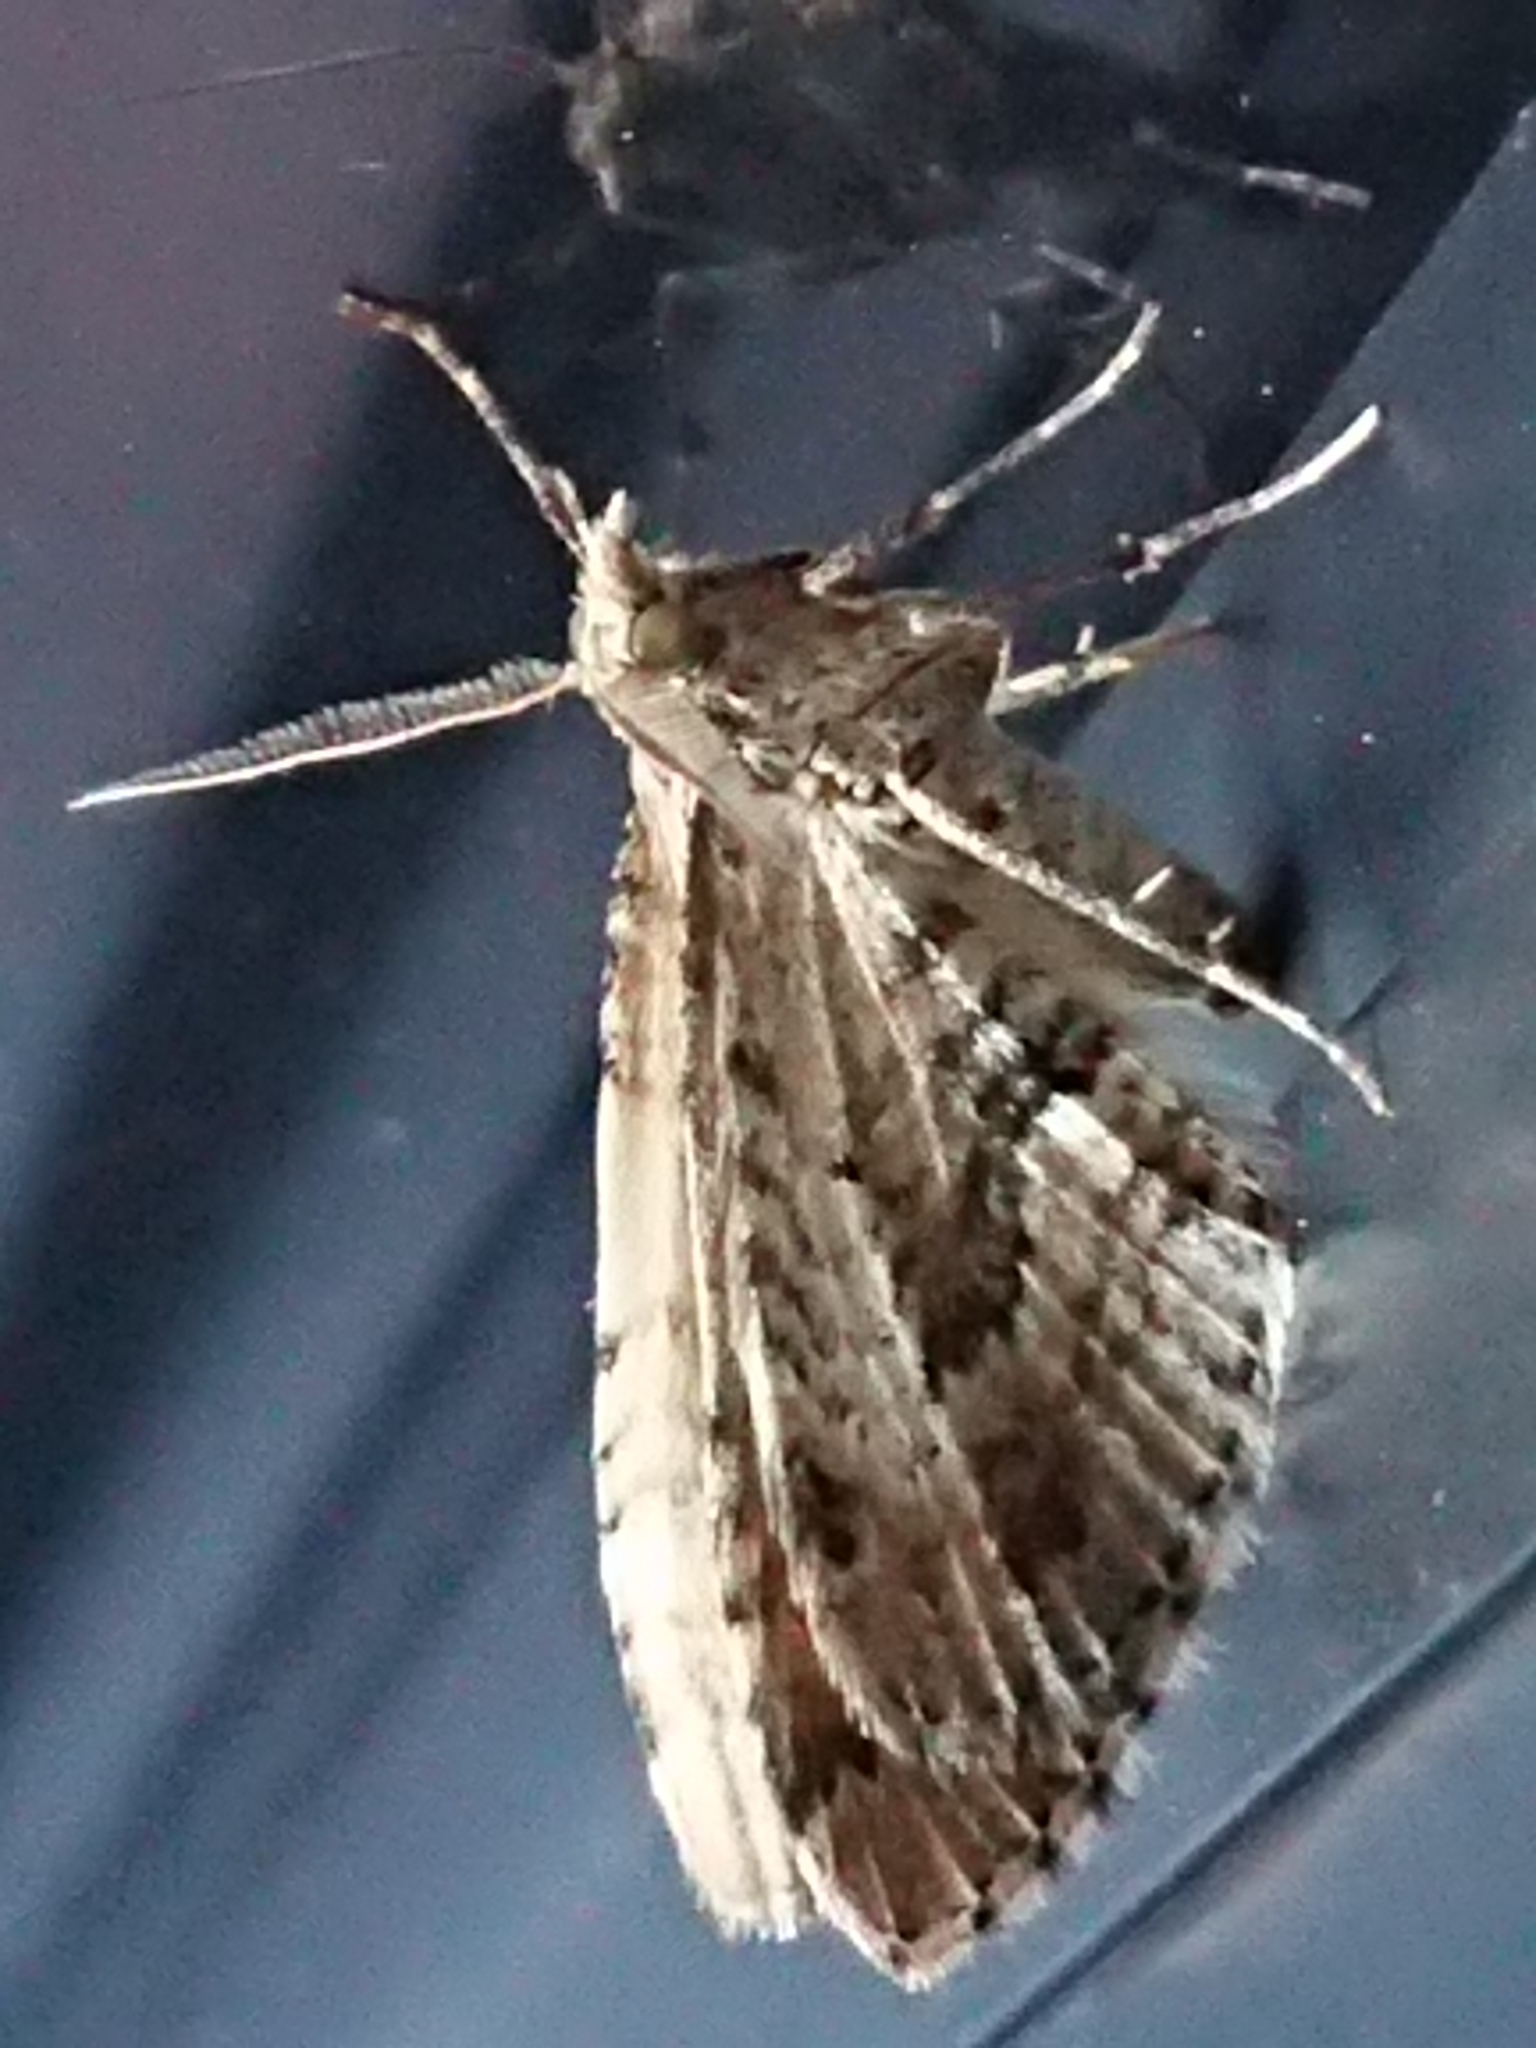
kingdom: Animalia
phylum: Arthropoda
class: Insecta
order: Lepidoptera
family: Geometridae
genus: Asaphodes
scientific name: Asaphodes aegrota
